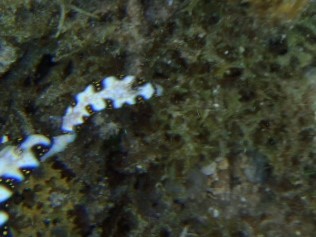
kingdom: Animalia
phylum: Mollusca
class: Gastropoda
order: Nudibranchia
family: Chromodorididae
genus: Hypselodoris
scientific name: Hypselodoris imperialis
